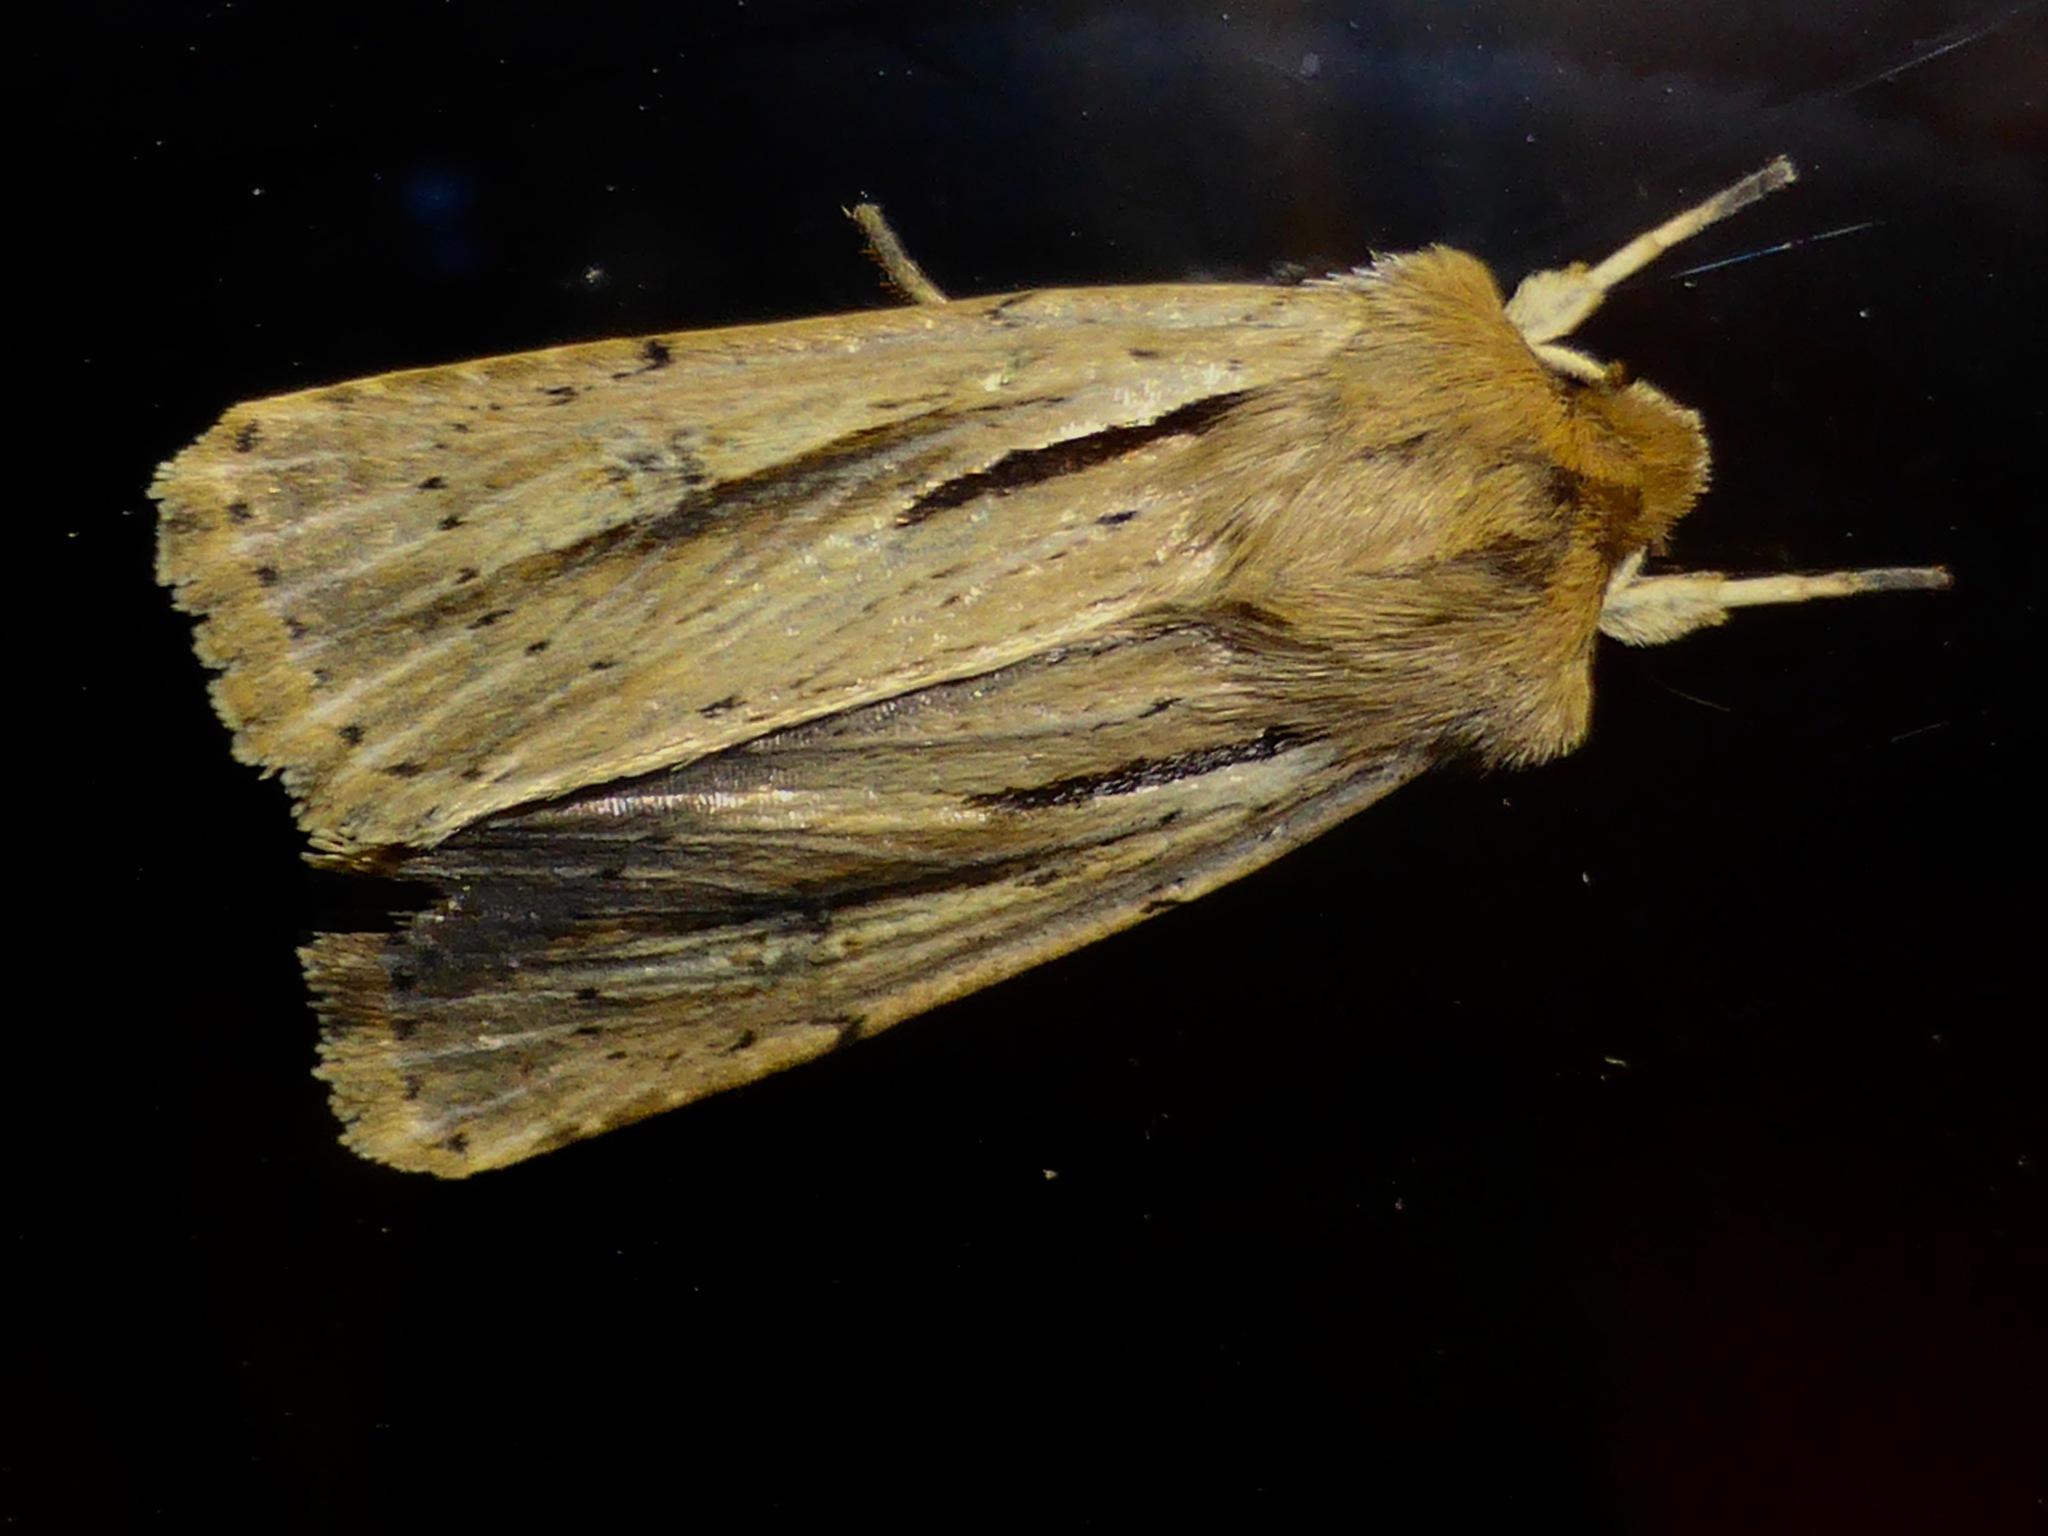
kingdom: Animalia
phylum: Arthropoda
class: Insecta
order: Lepidoptera
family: Noctuidae
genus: Ichneutica
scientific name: Ichneutica propria
